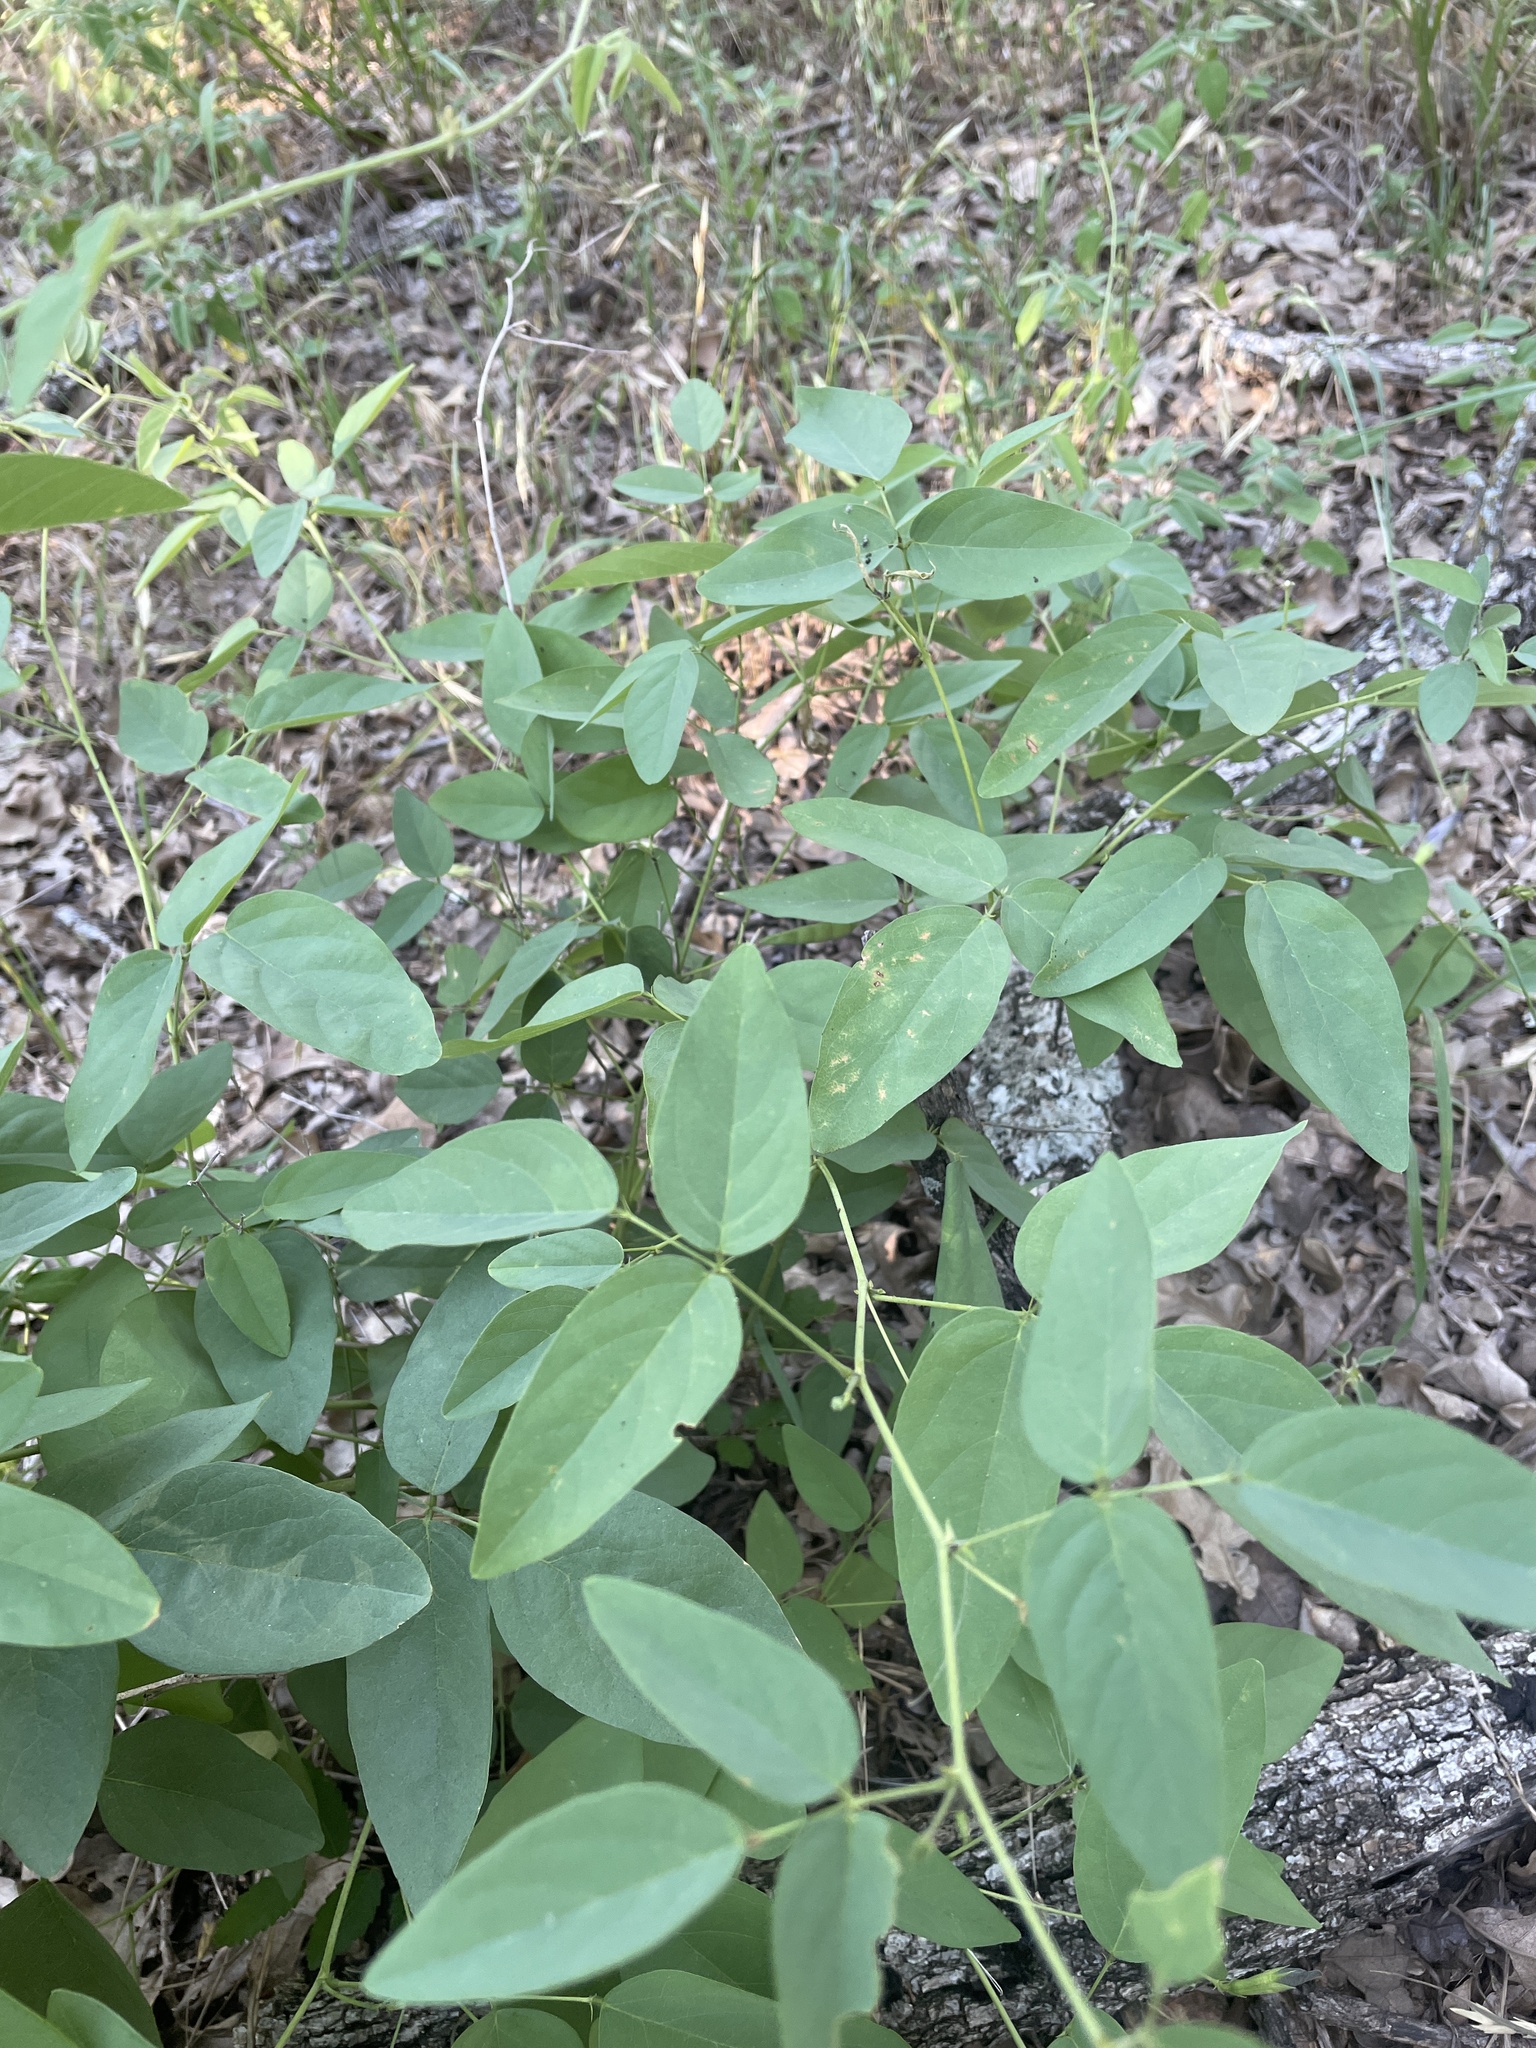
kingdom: Plantae
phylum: Tracheophyta
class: Magnoliopsida
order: Fabales
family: Fabaceae
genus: Clitoria
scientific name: Clitoria mariana
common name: Butterfly-pea
